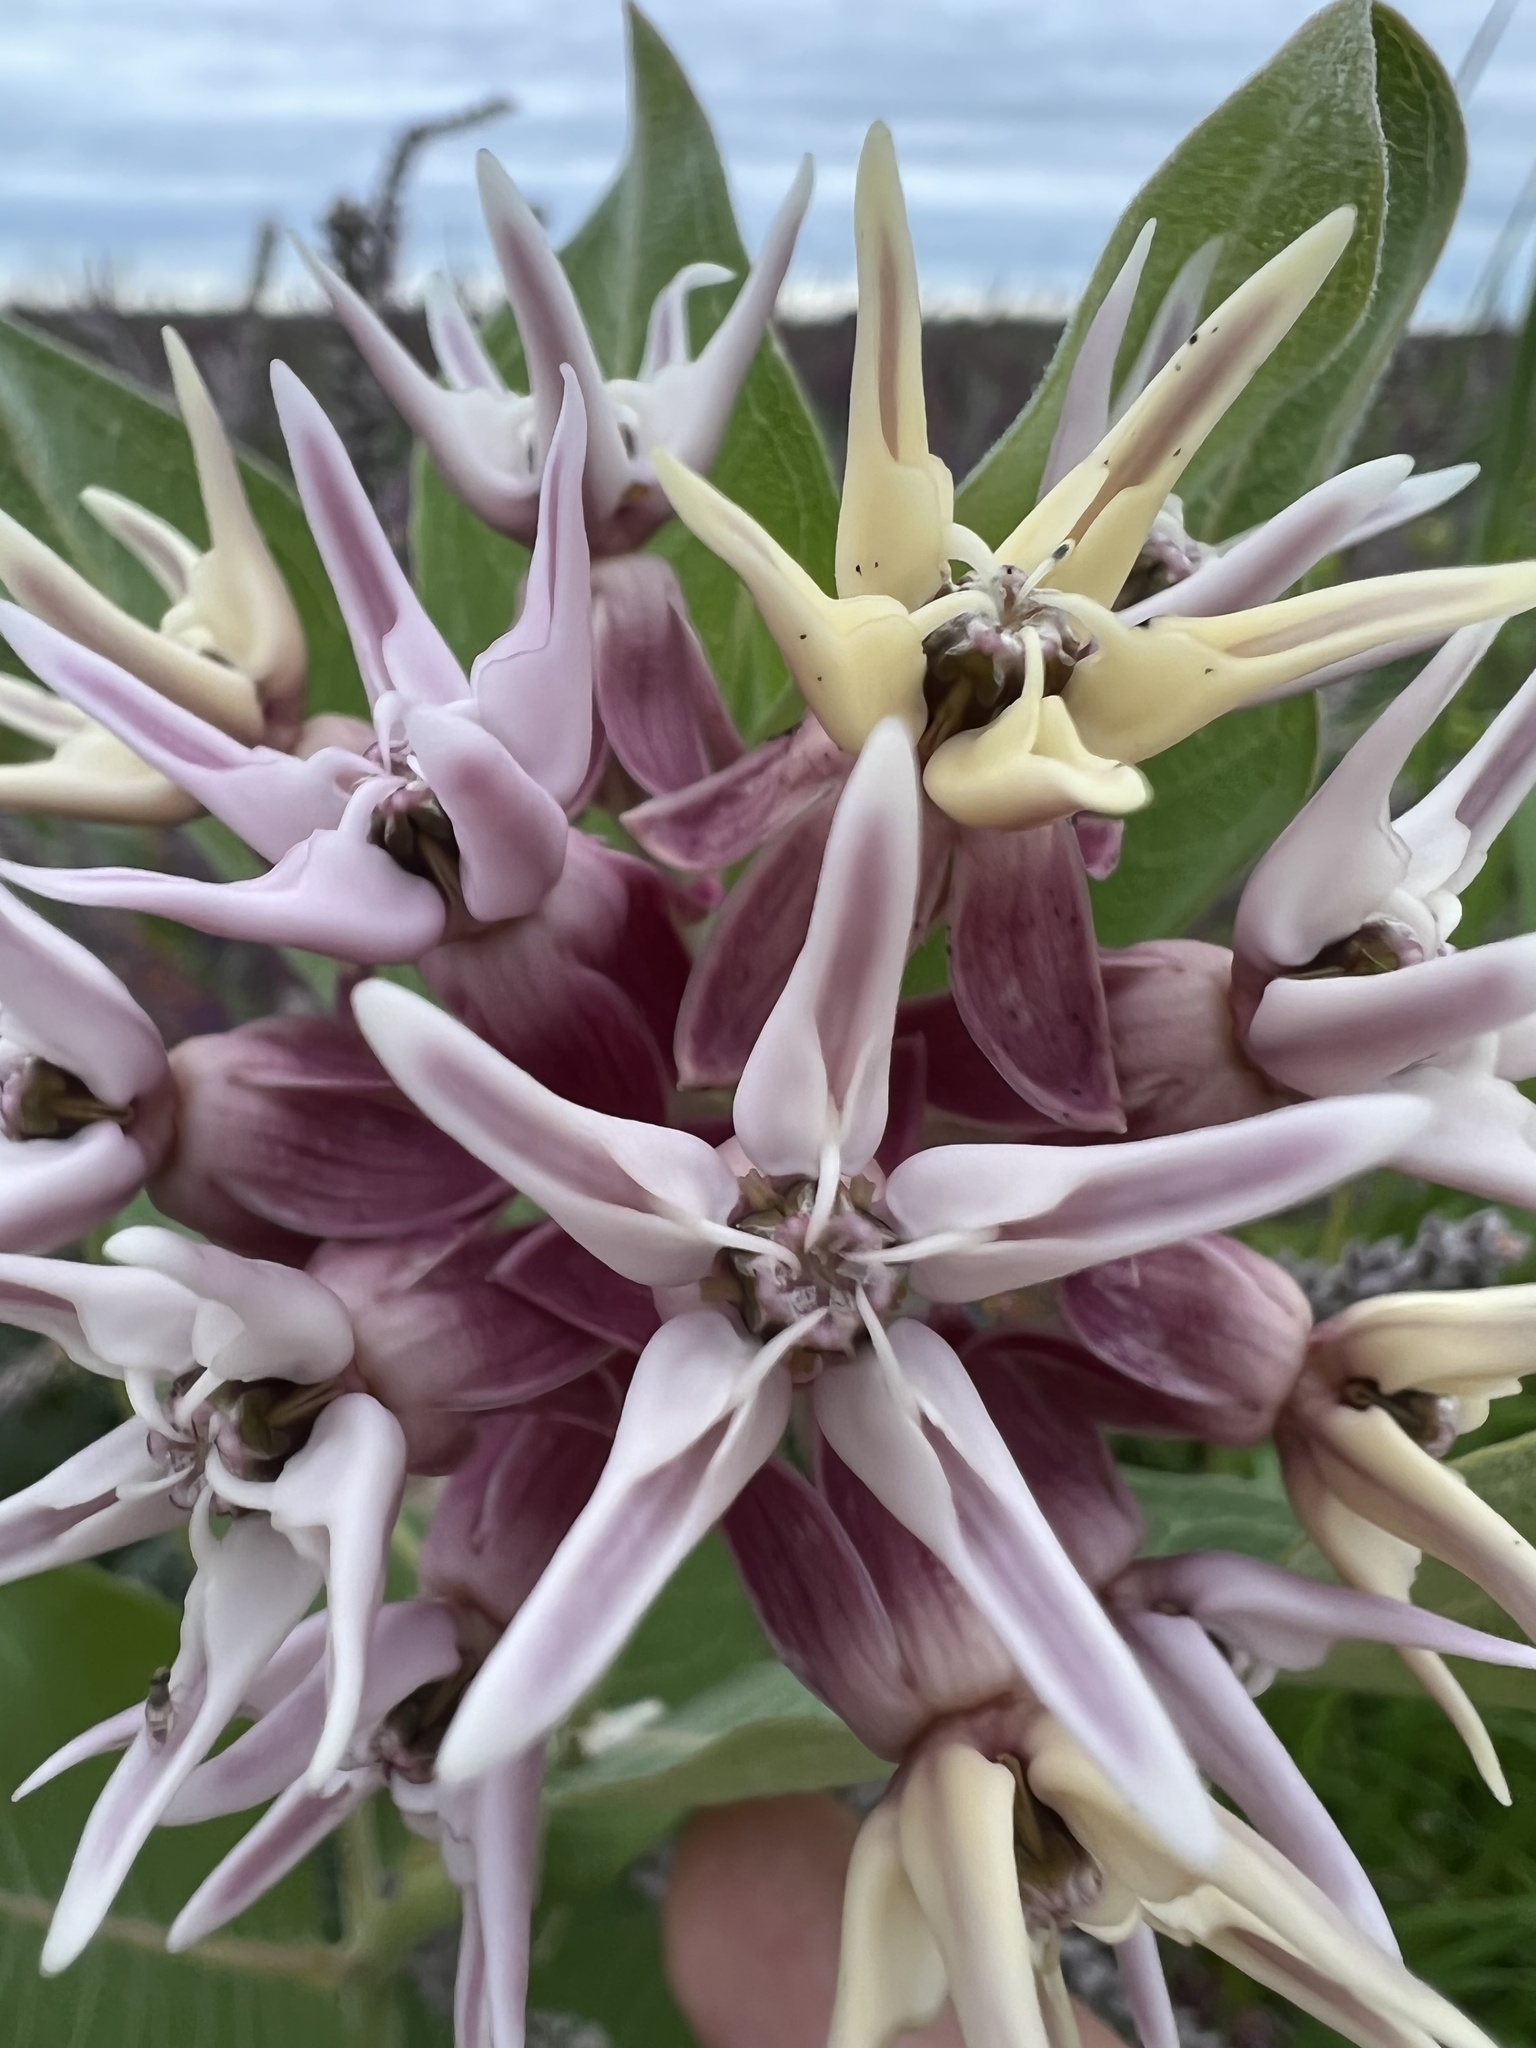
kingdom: Plantae
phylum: Tracheophyta
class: Magnoliopsida
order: Gentianales
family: Apocynaceae
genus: Asclepias
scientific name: Asclepias speciosa
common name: Showy milkweed
